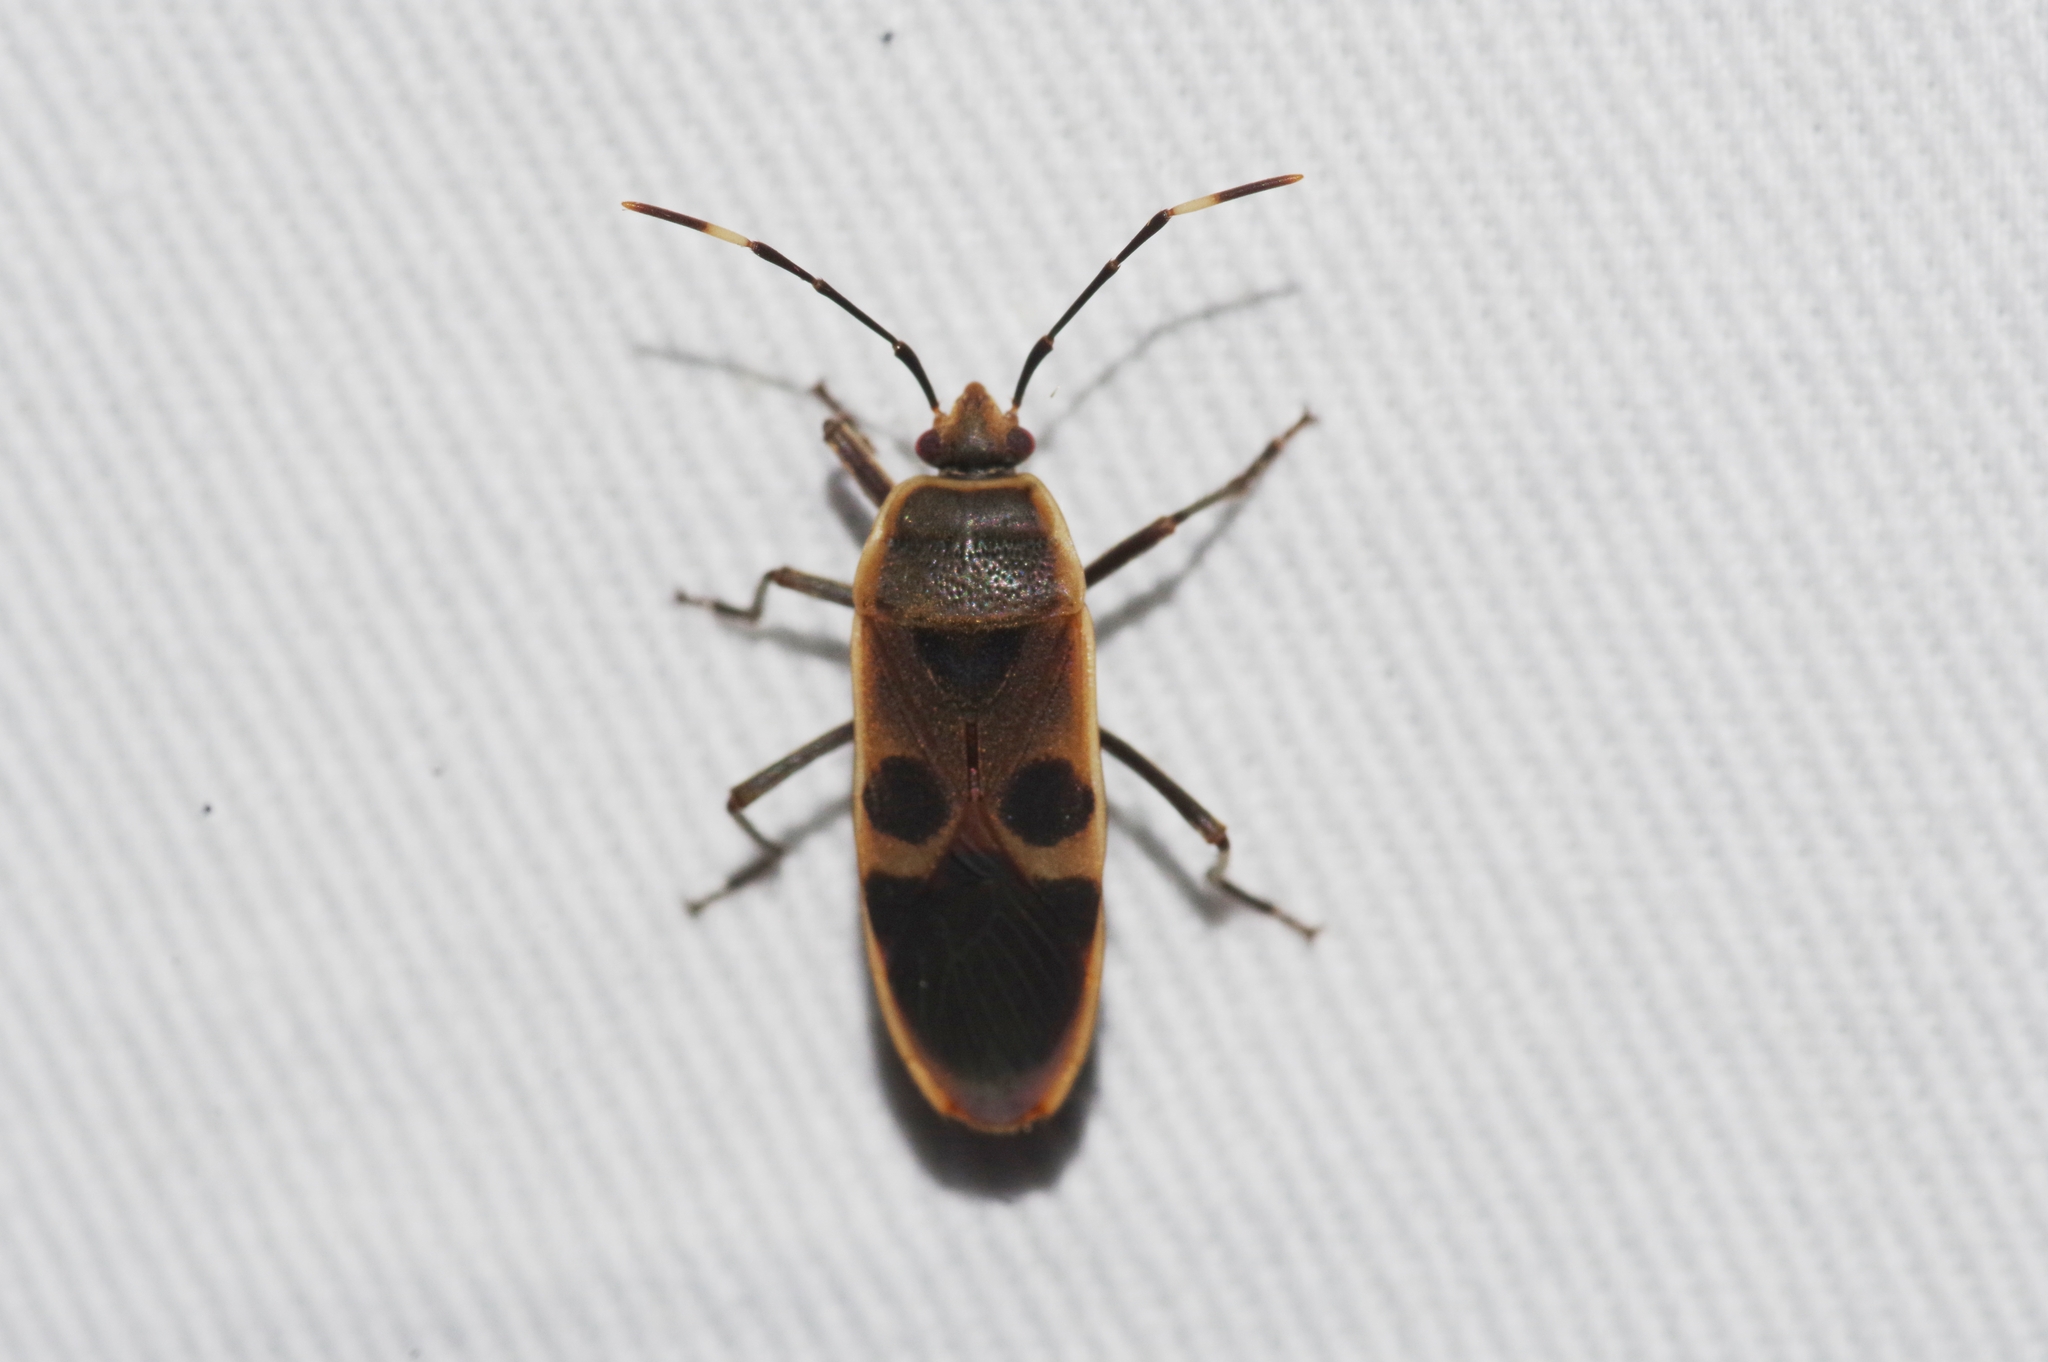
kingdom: Animalia
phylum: Arthropoda
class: Insecta
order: Hemiptera
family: Largidae
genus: Physopelta
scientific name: Physopelta gutta
